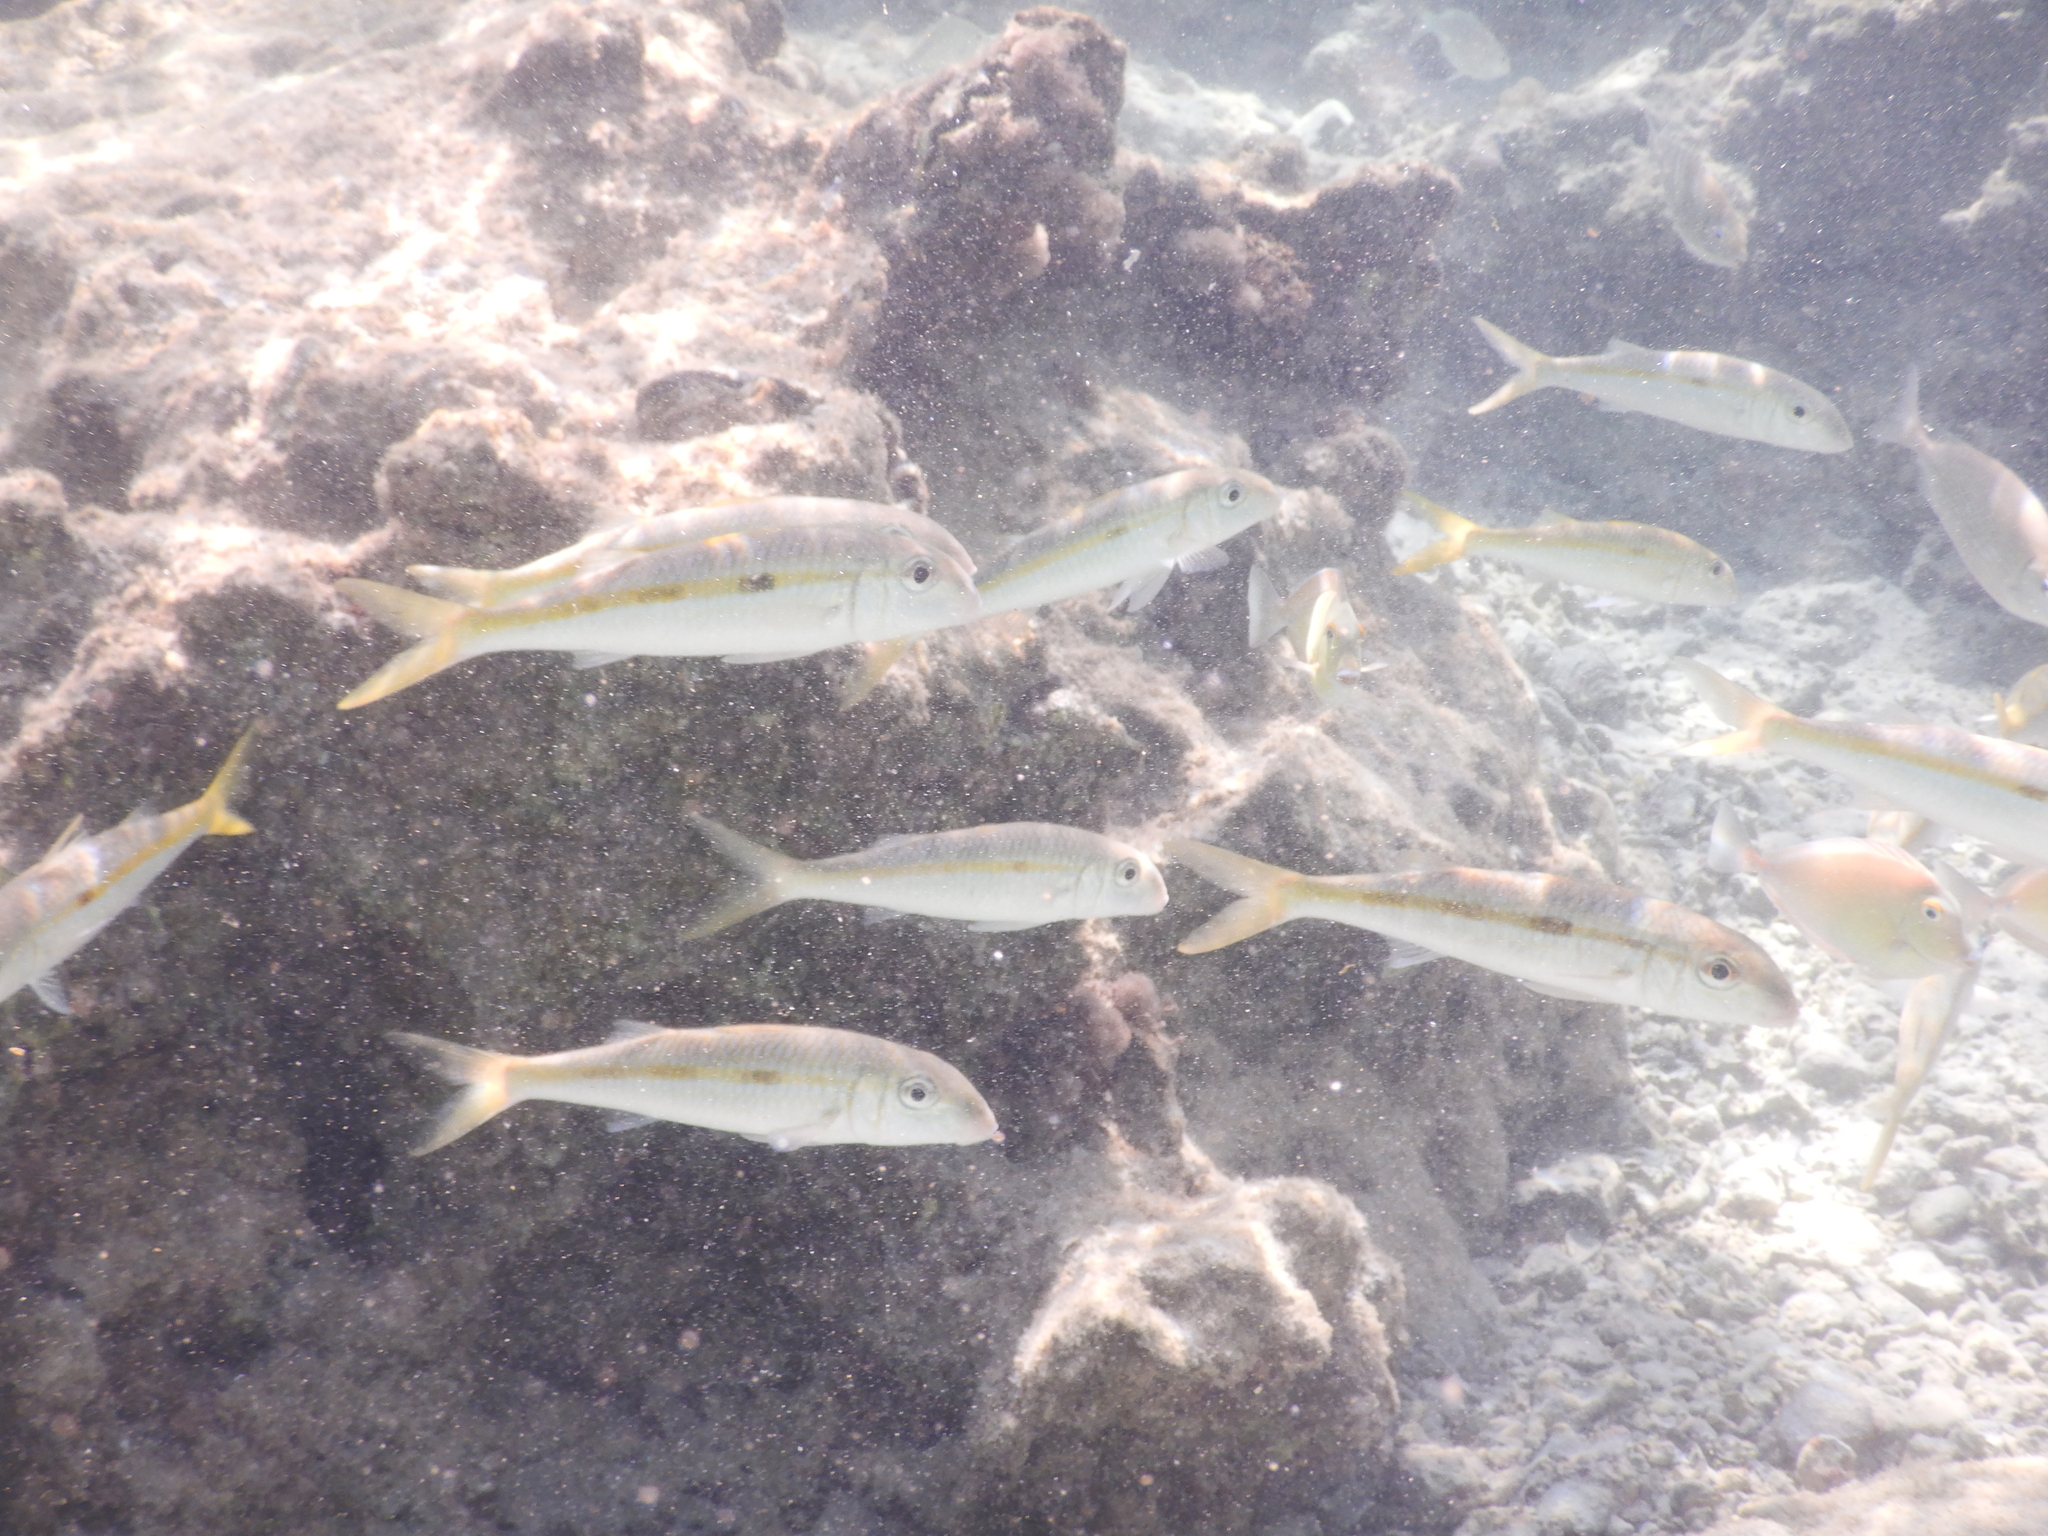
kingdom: Animalia
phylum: Chordata
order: Perciformes
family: Mullidae
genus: Mulloidichthys
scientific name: Mulloidichthys flavolineatus
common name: Yellowstripe goatfish
